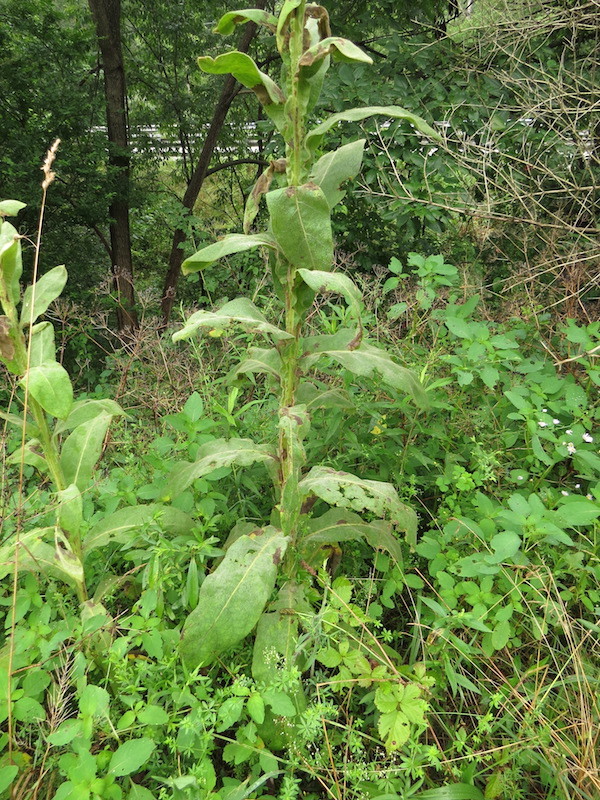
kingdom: Plantae
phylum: Tracheophyta
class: Magnoliopsida
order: Lamiales
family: Scrophulariaceae
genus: Verbascum
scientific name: Verbascum thapsus
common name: Common mullein
